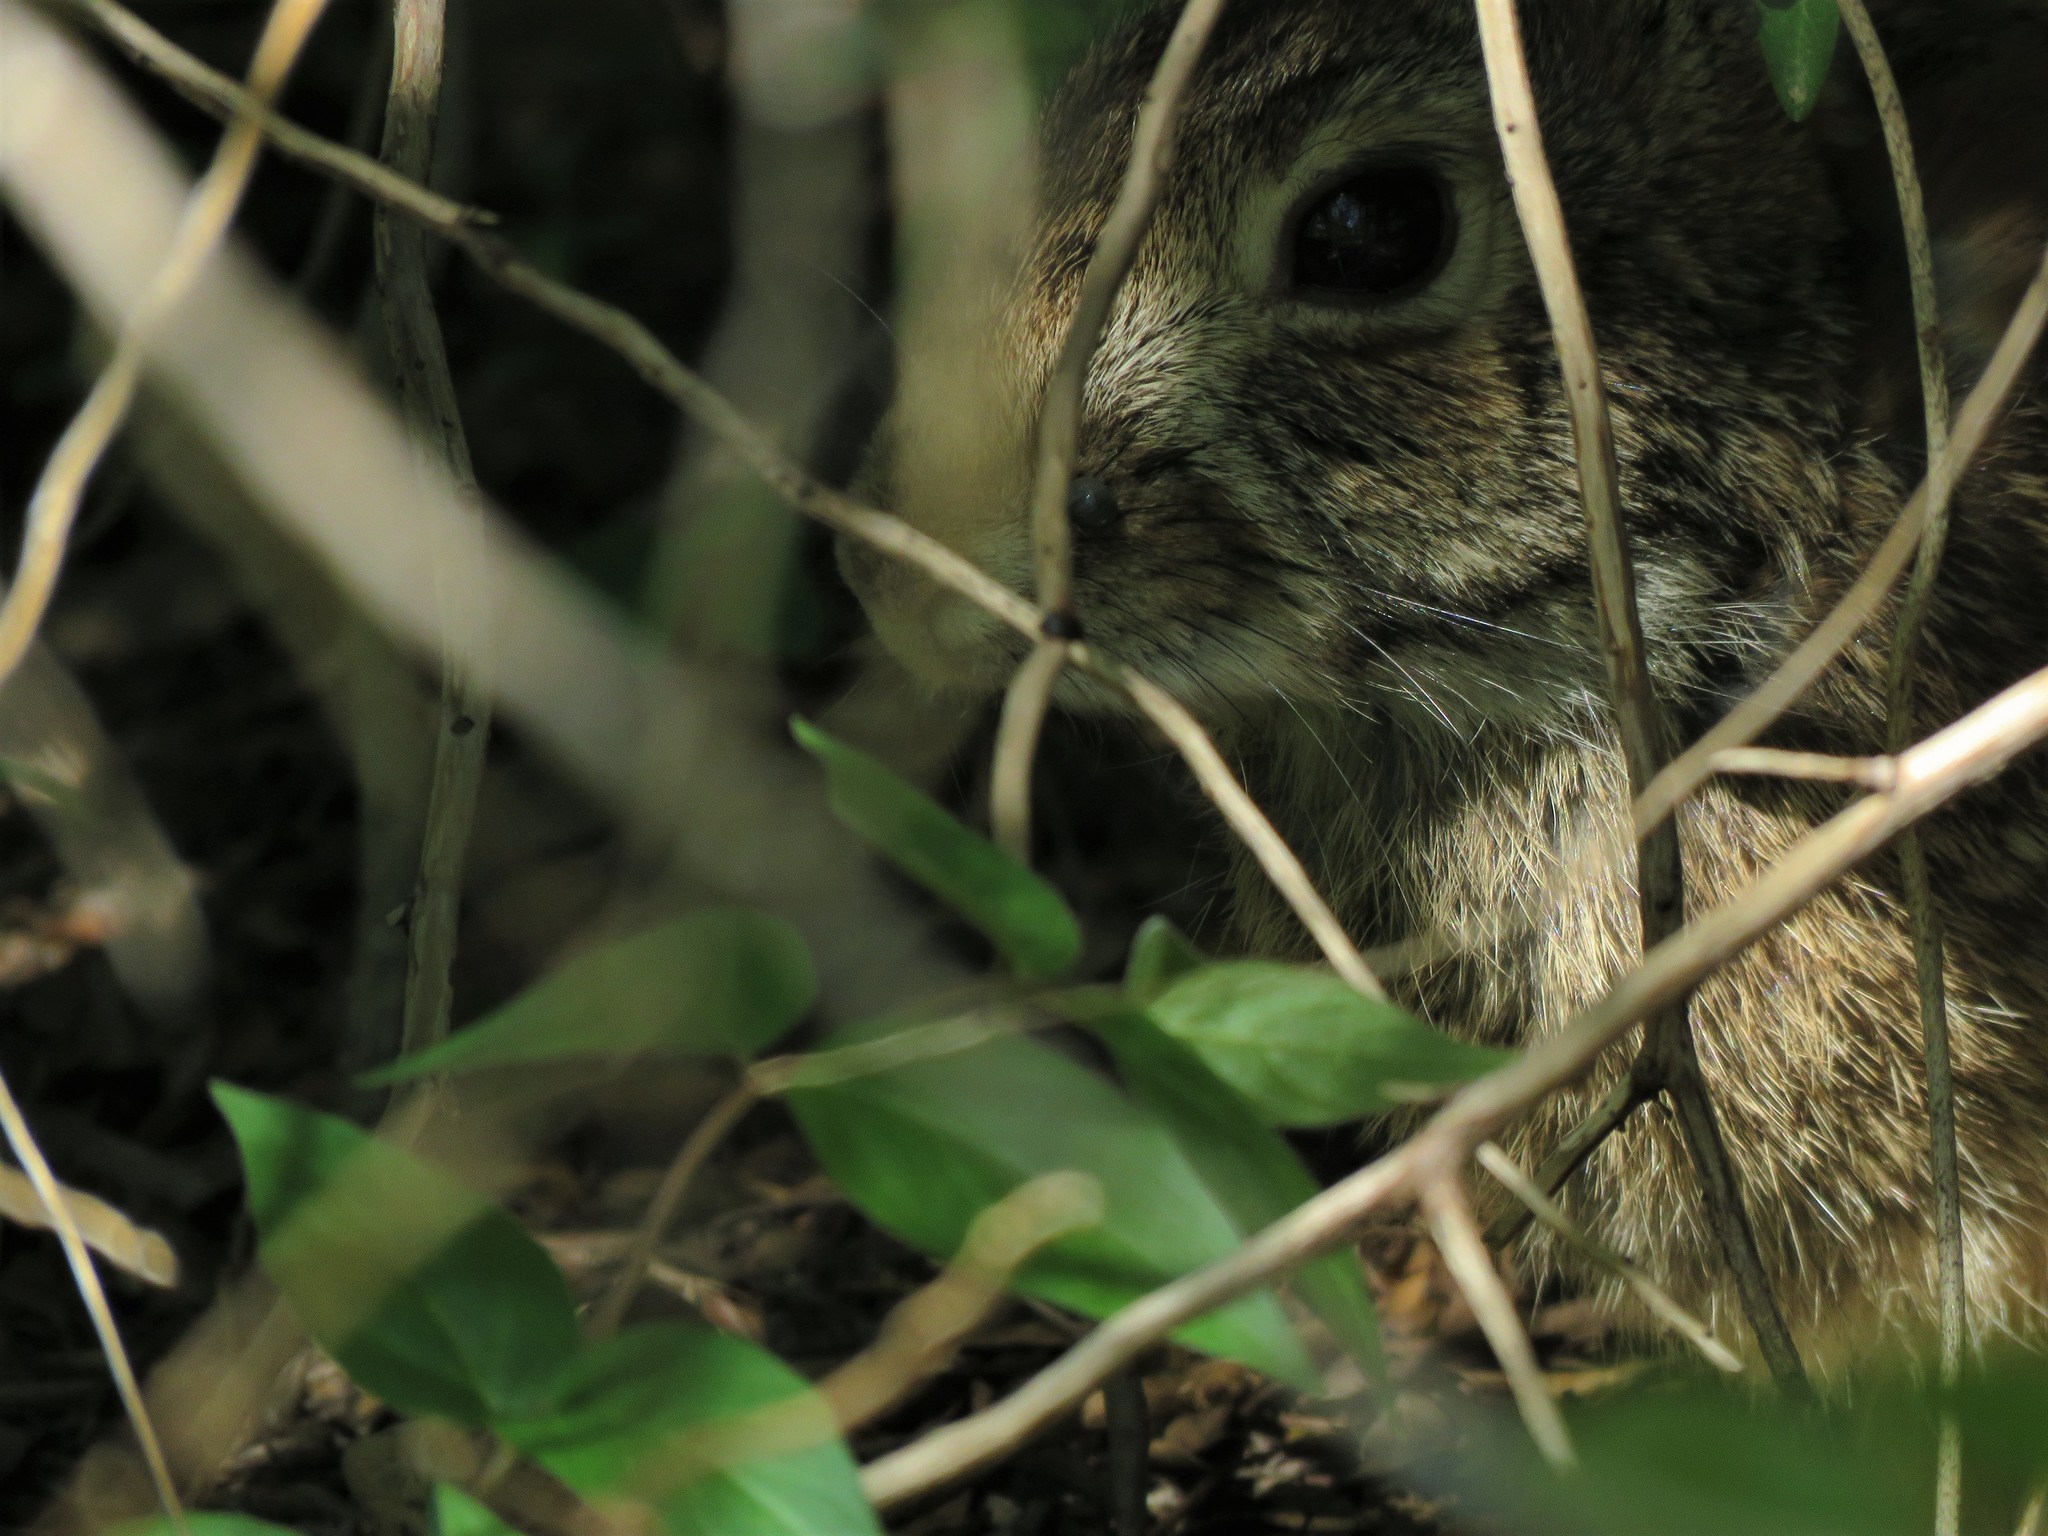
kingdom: Animalia
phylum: Chordata
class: Mammalia
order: Lagomorpha
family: Leporidae
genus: Sylvilagus
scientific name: Sylvilagus floridanus
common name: Eastern cottontail
